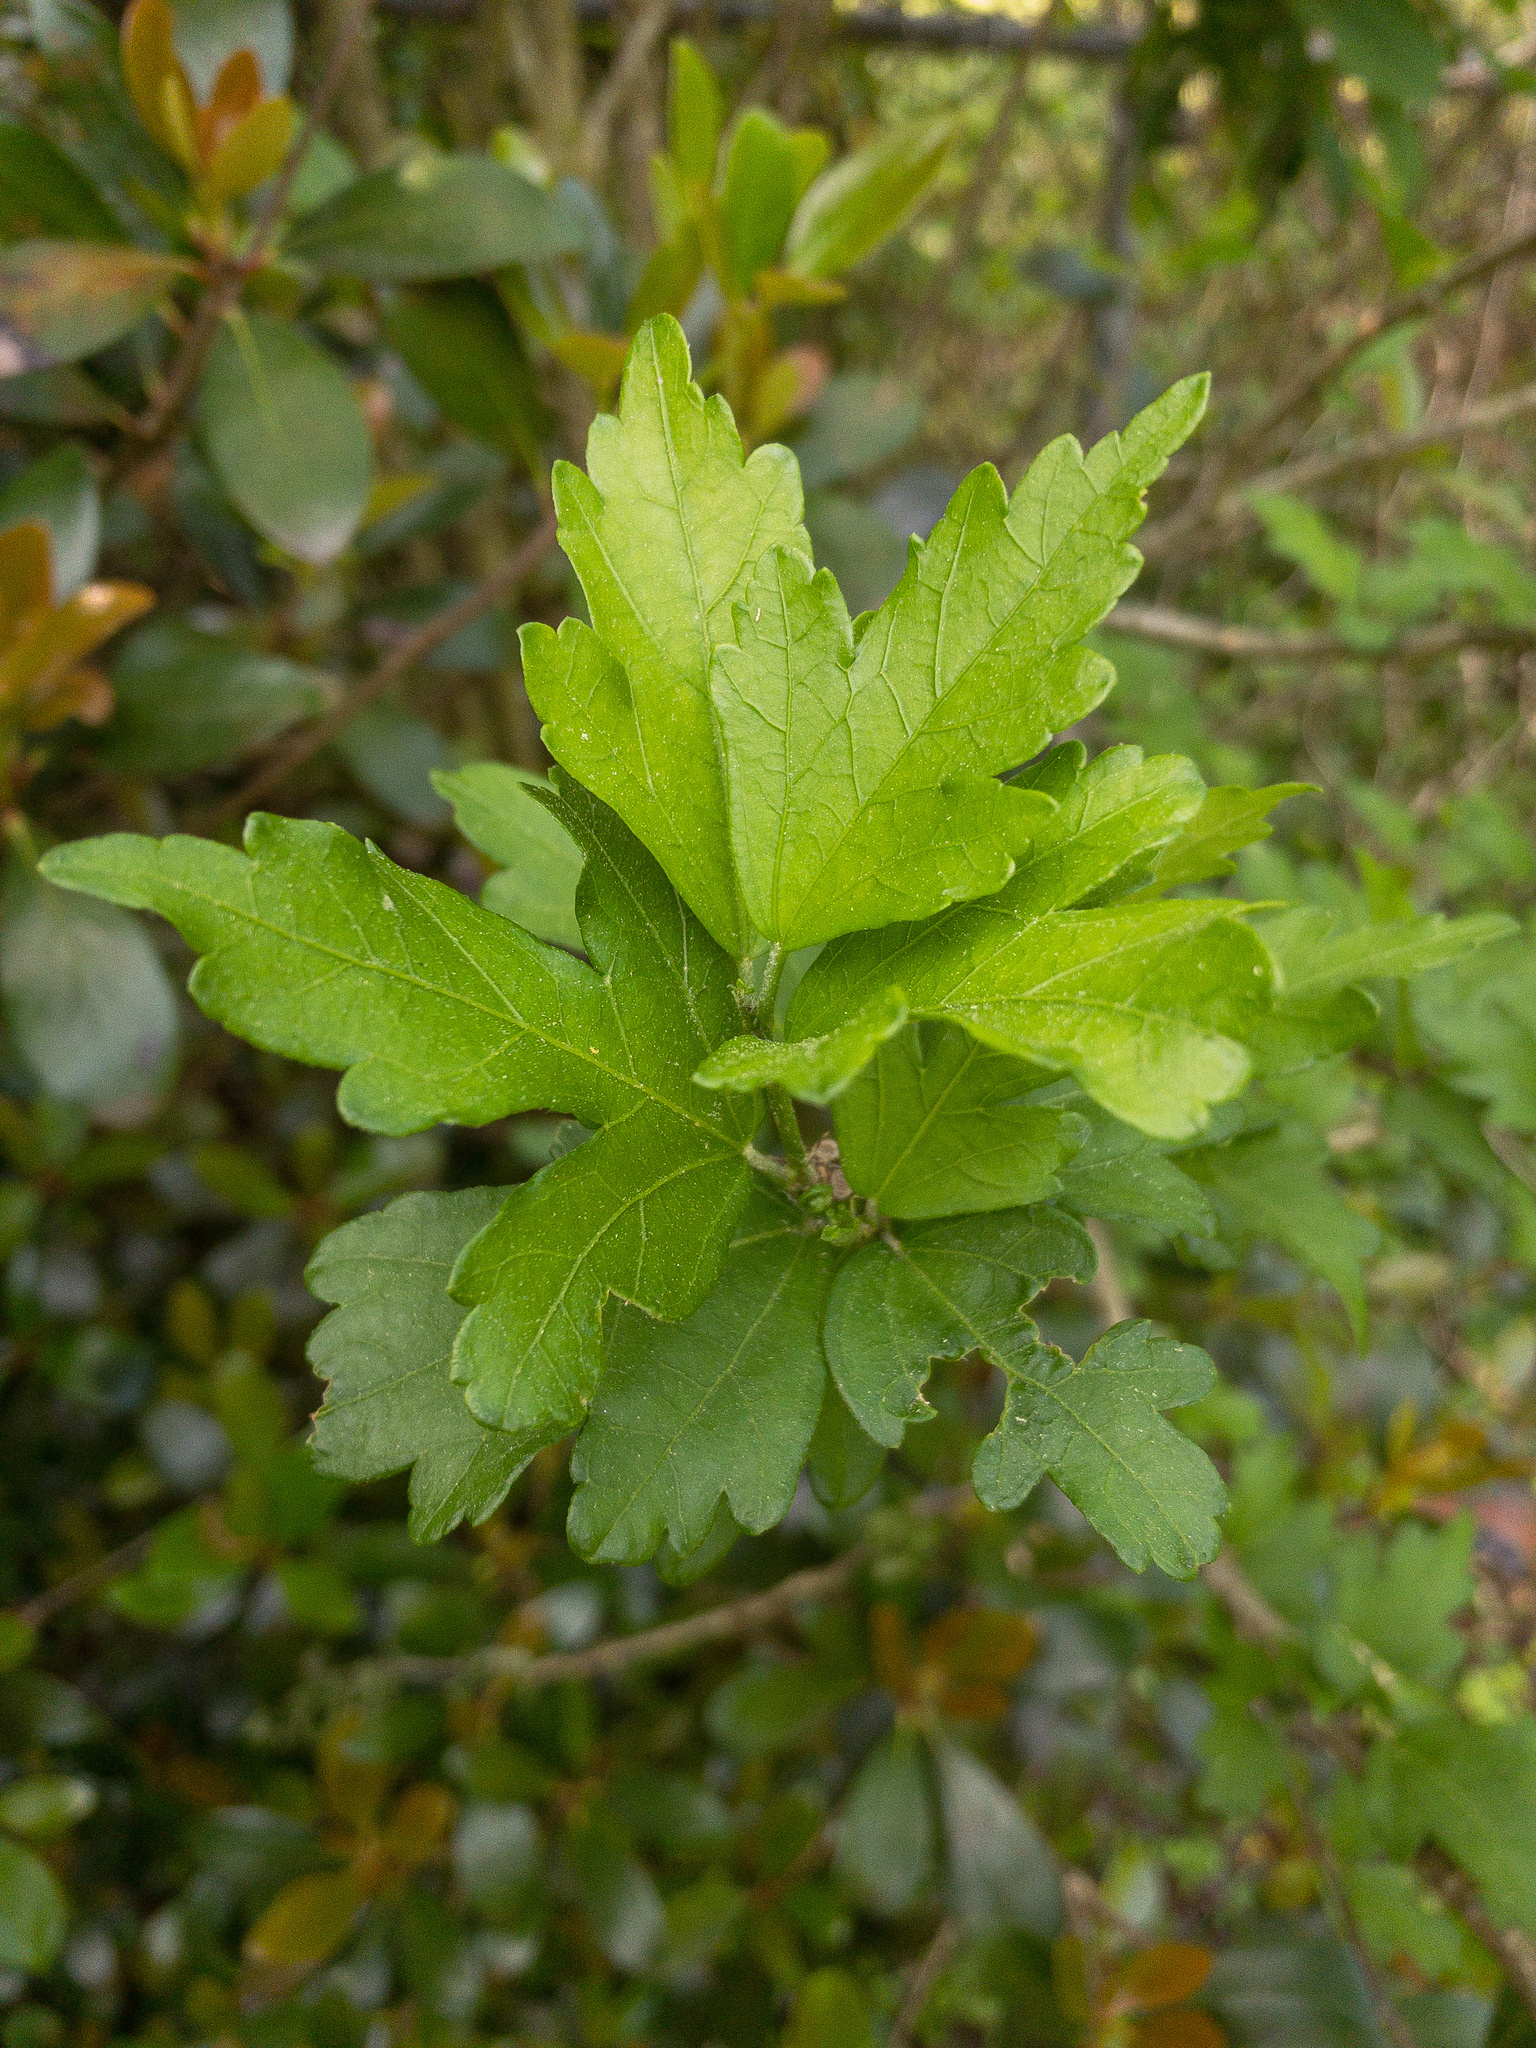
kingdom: Plantae
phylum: Tracheophyta
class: Magnoliopsida
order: Malvales
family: Malvaceae
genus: Hibiscus
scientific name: Hibiscus syriacus
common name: Syrian ketmia
